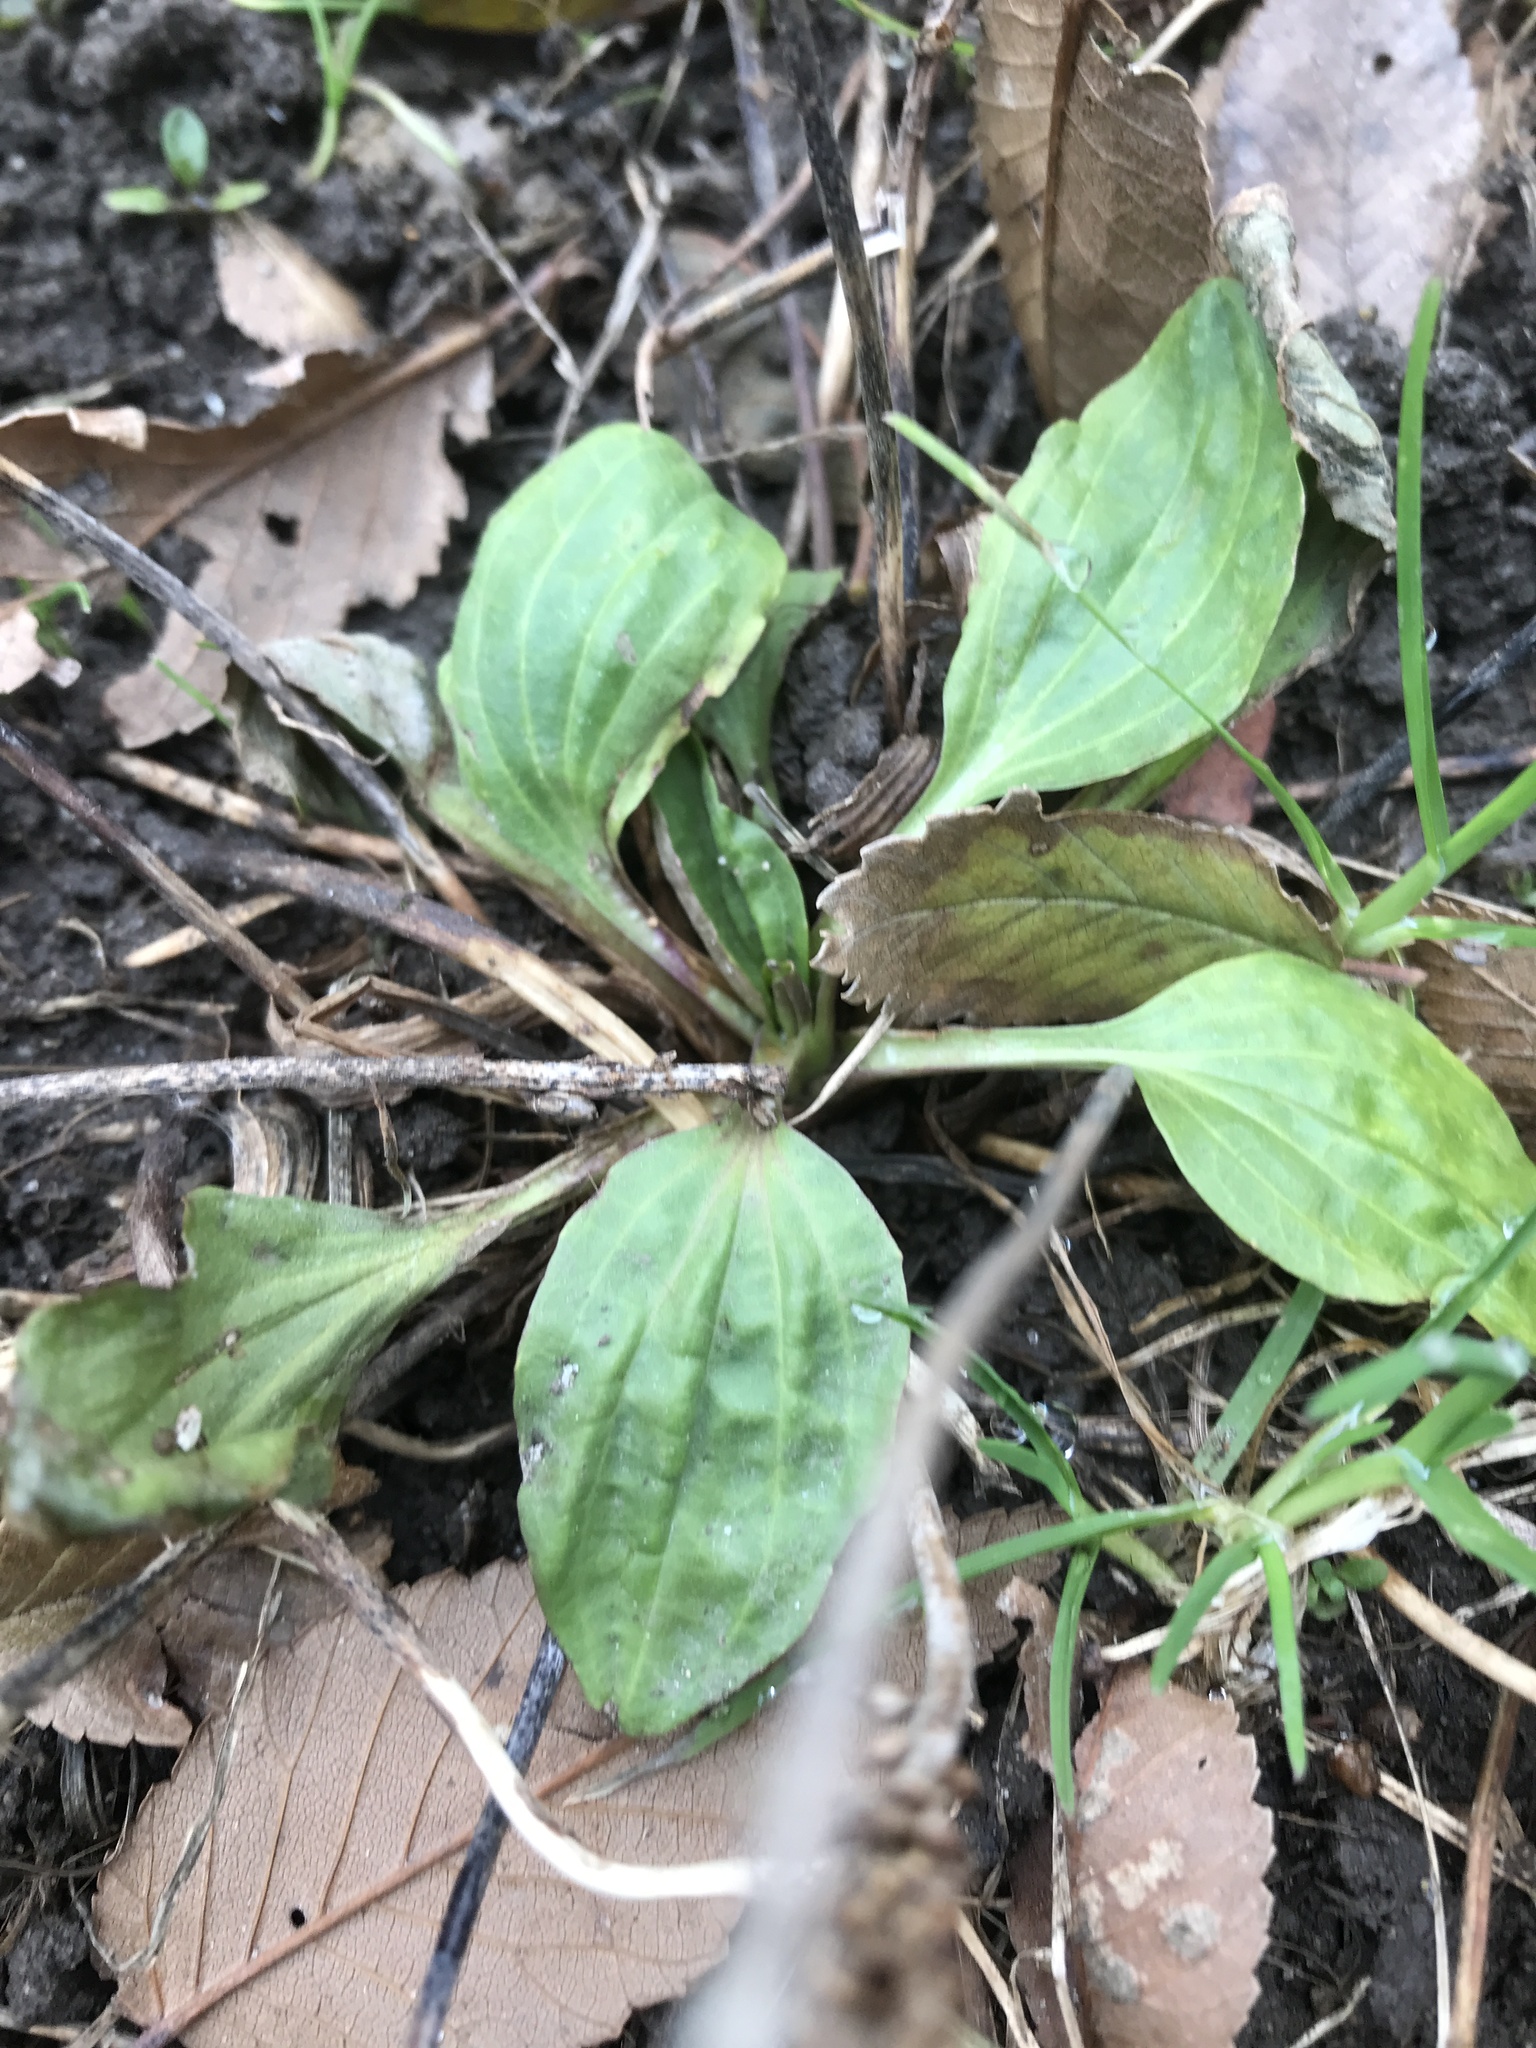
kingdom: Plantae
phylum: Tracheophyta
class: Magnoliopsida
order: Lamiales
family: Plantaginaceae
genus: Plantago
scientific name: Plantago major
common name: Common plantain
